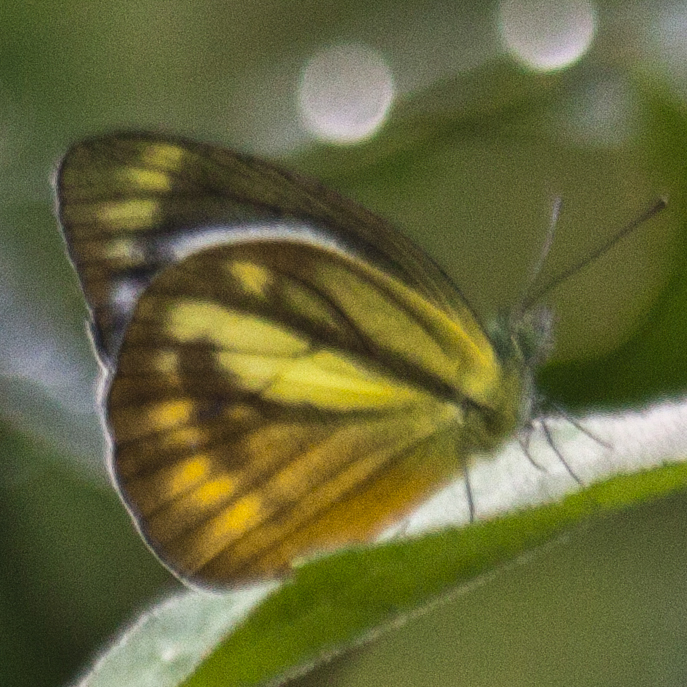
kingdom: Animalia
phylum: Arthropoda
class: Insecta
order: Lepidoptera
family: Pieridae
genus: Cepora
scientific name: Cepora nadina
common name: Lesser gull
